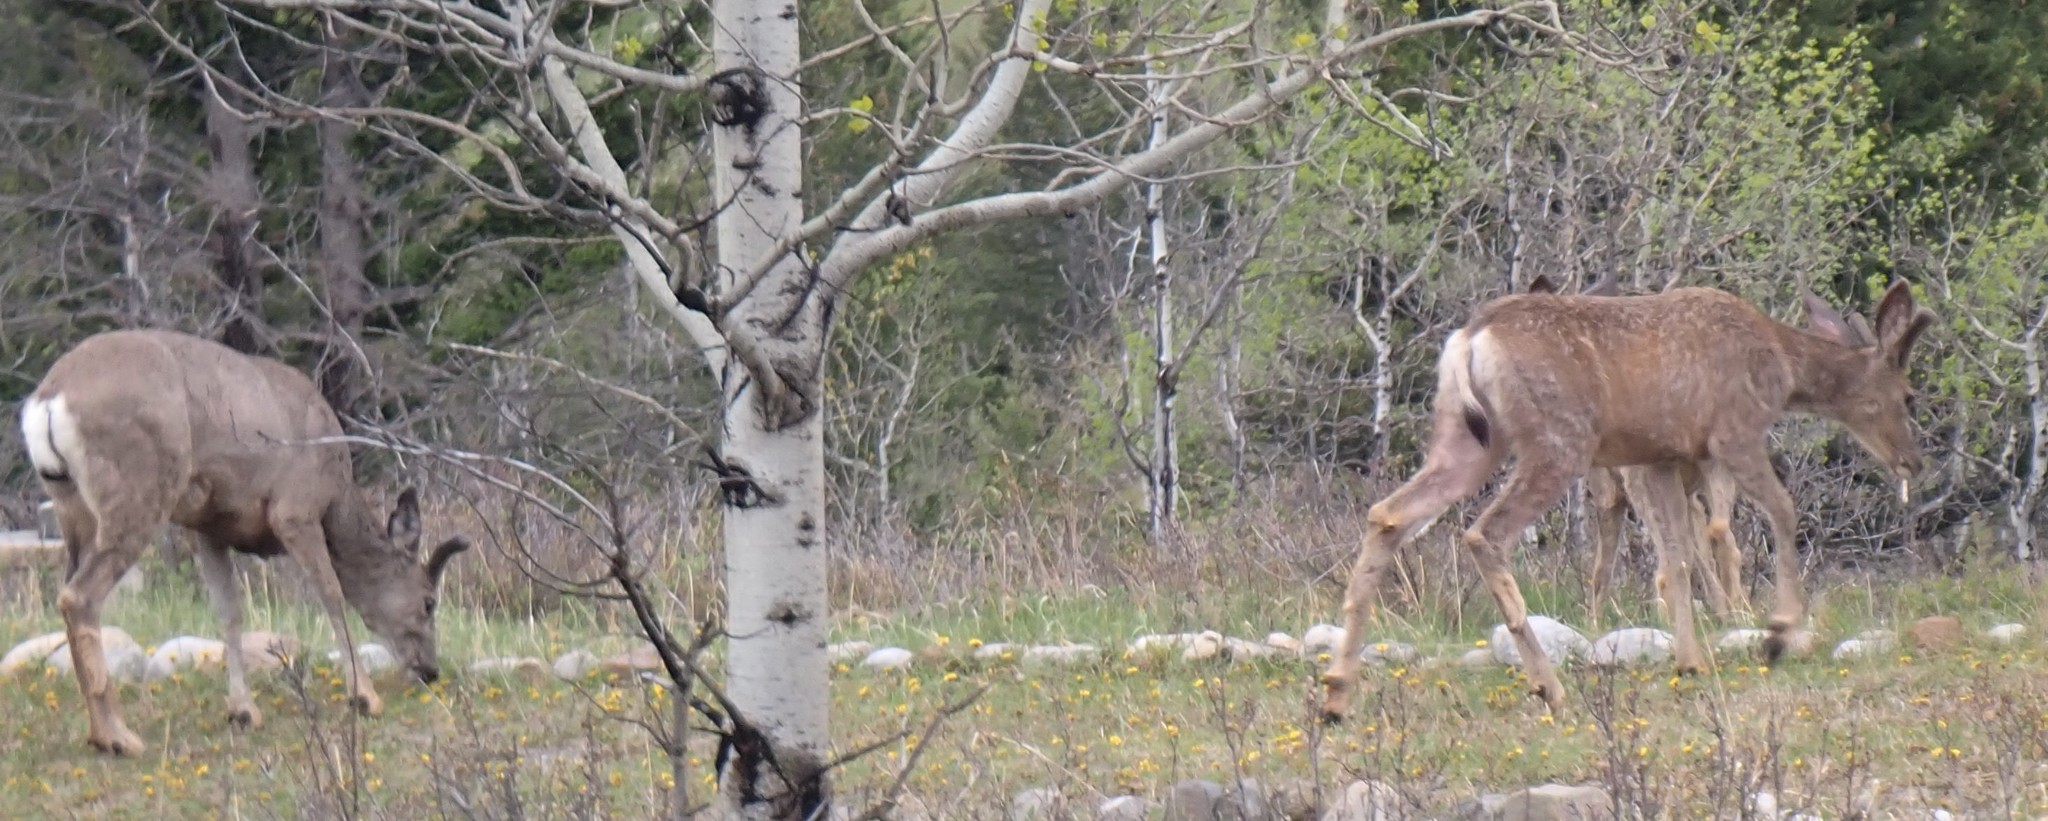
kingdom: Animalia
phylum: Chordata
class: Mammalia
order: Artiodactyla
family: Cervidae
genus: Odocoileus
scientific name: Odocoileus hemionus
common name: Mule deer
